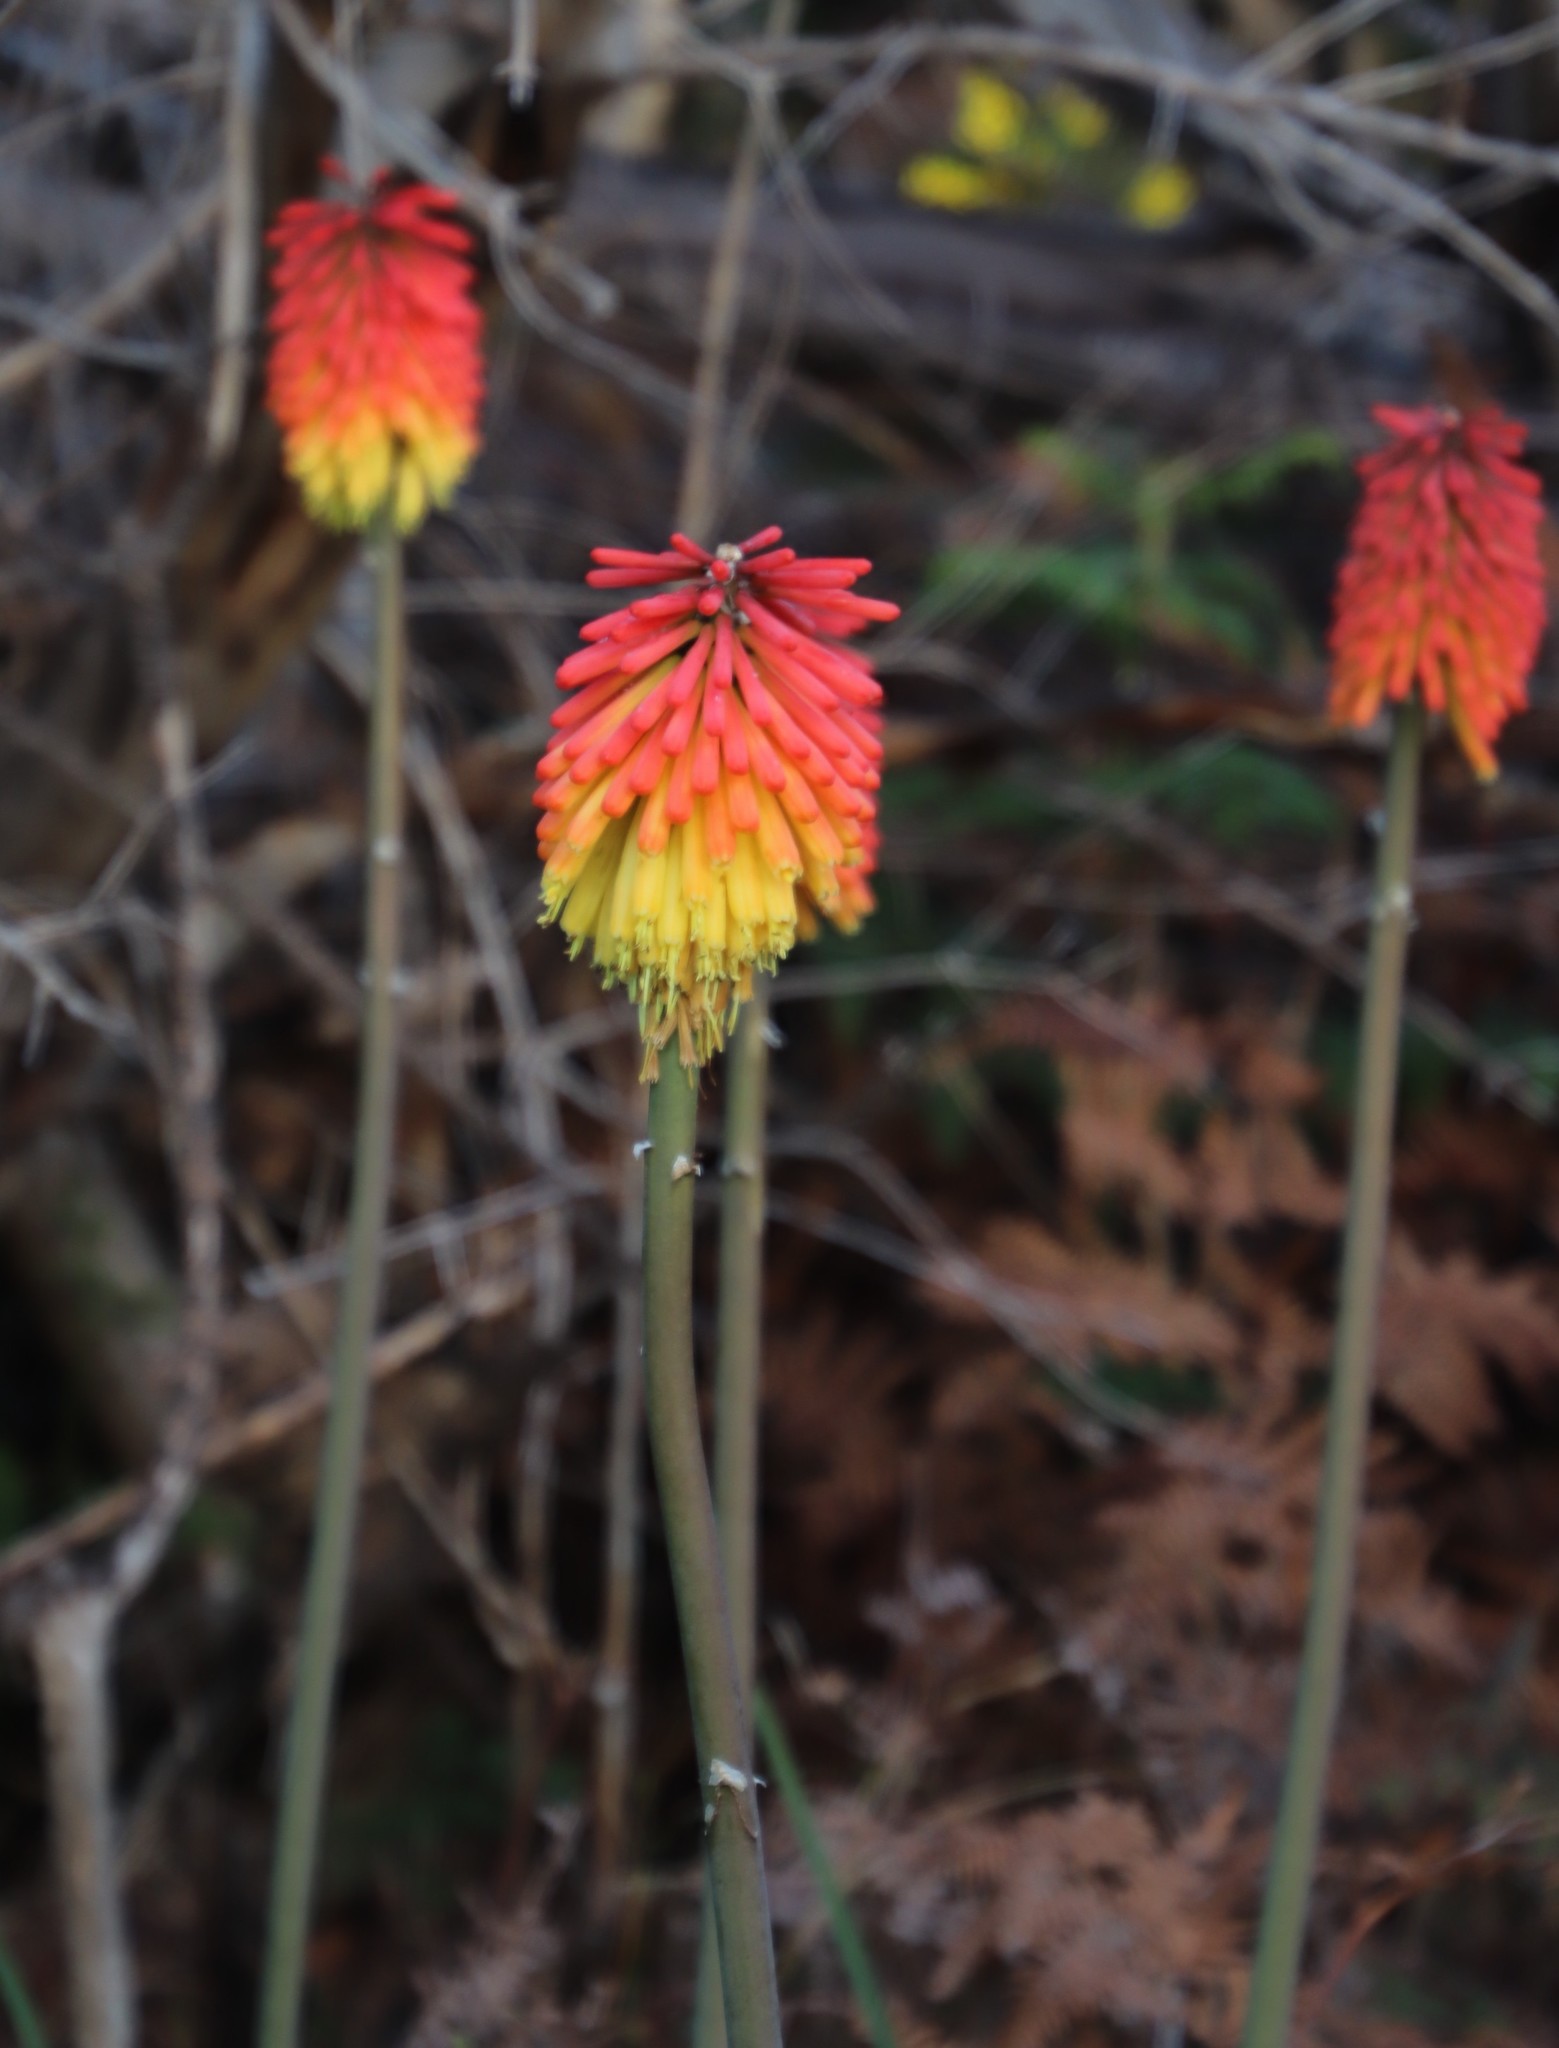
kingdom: Plantae
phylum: Tracheophyta
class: Liliopsida
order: Asparagales
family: Asphodelaceae
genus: Kniphofia
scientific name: Kniphofia uvaria
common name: Red-hot-poker
